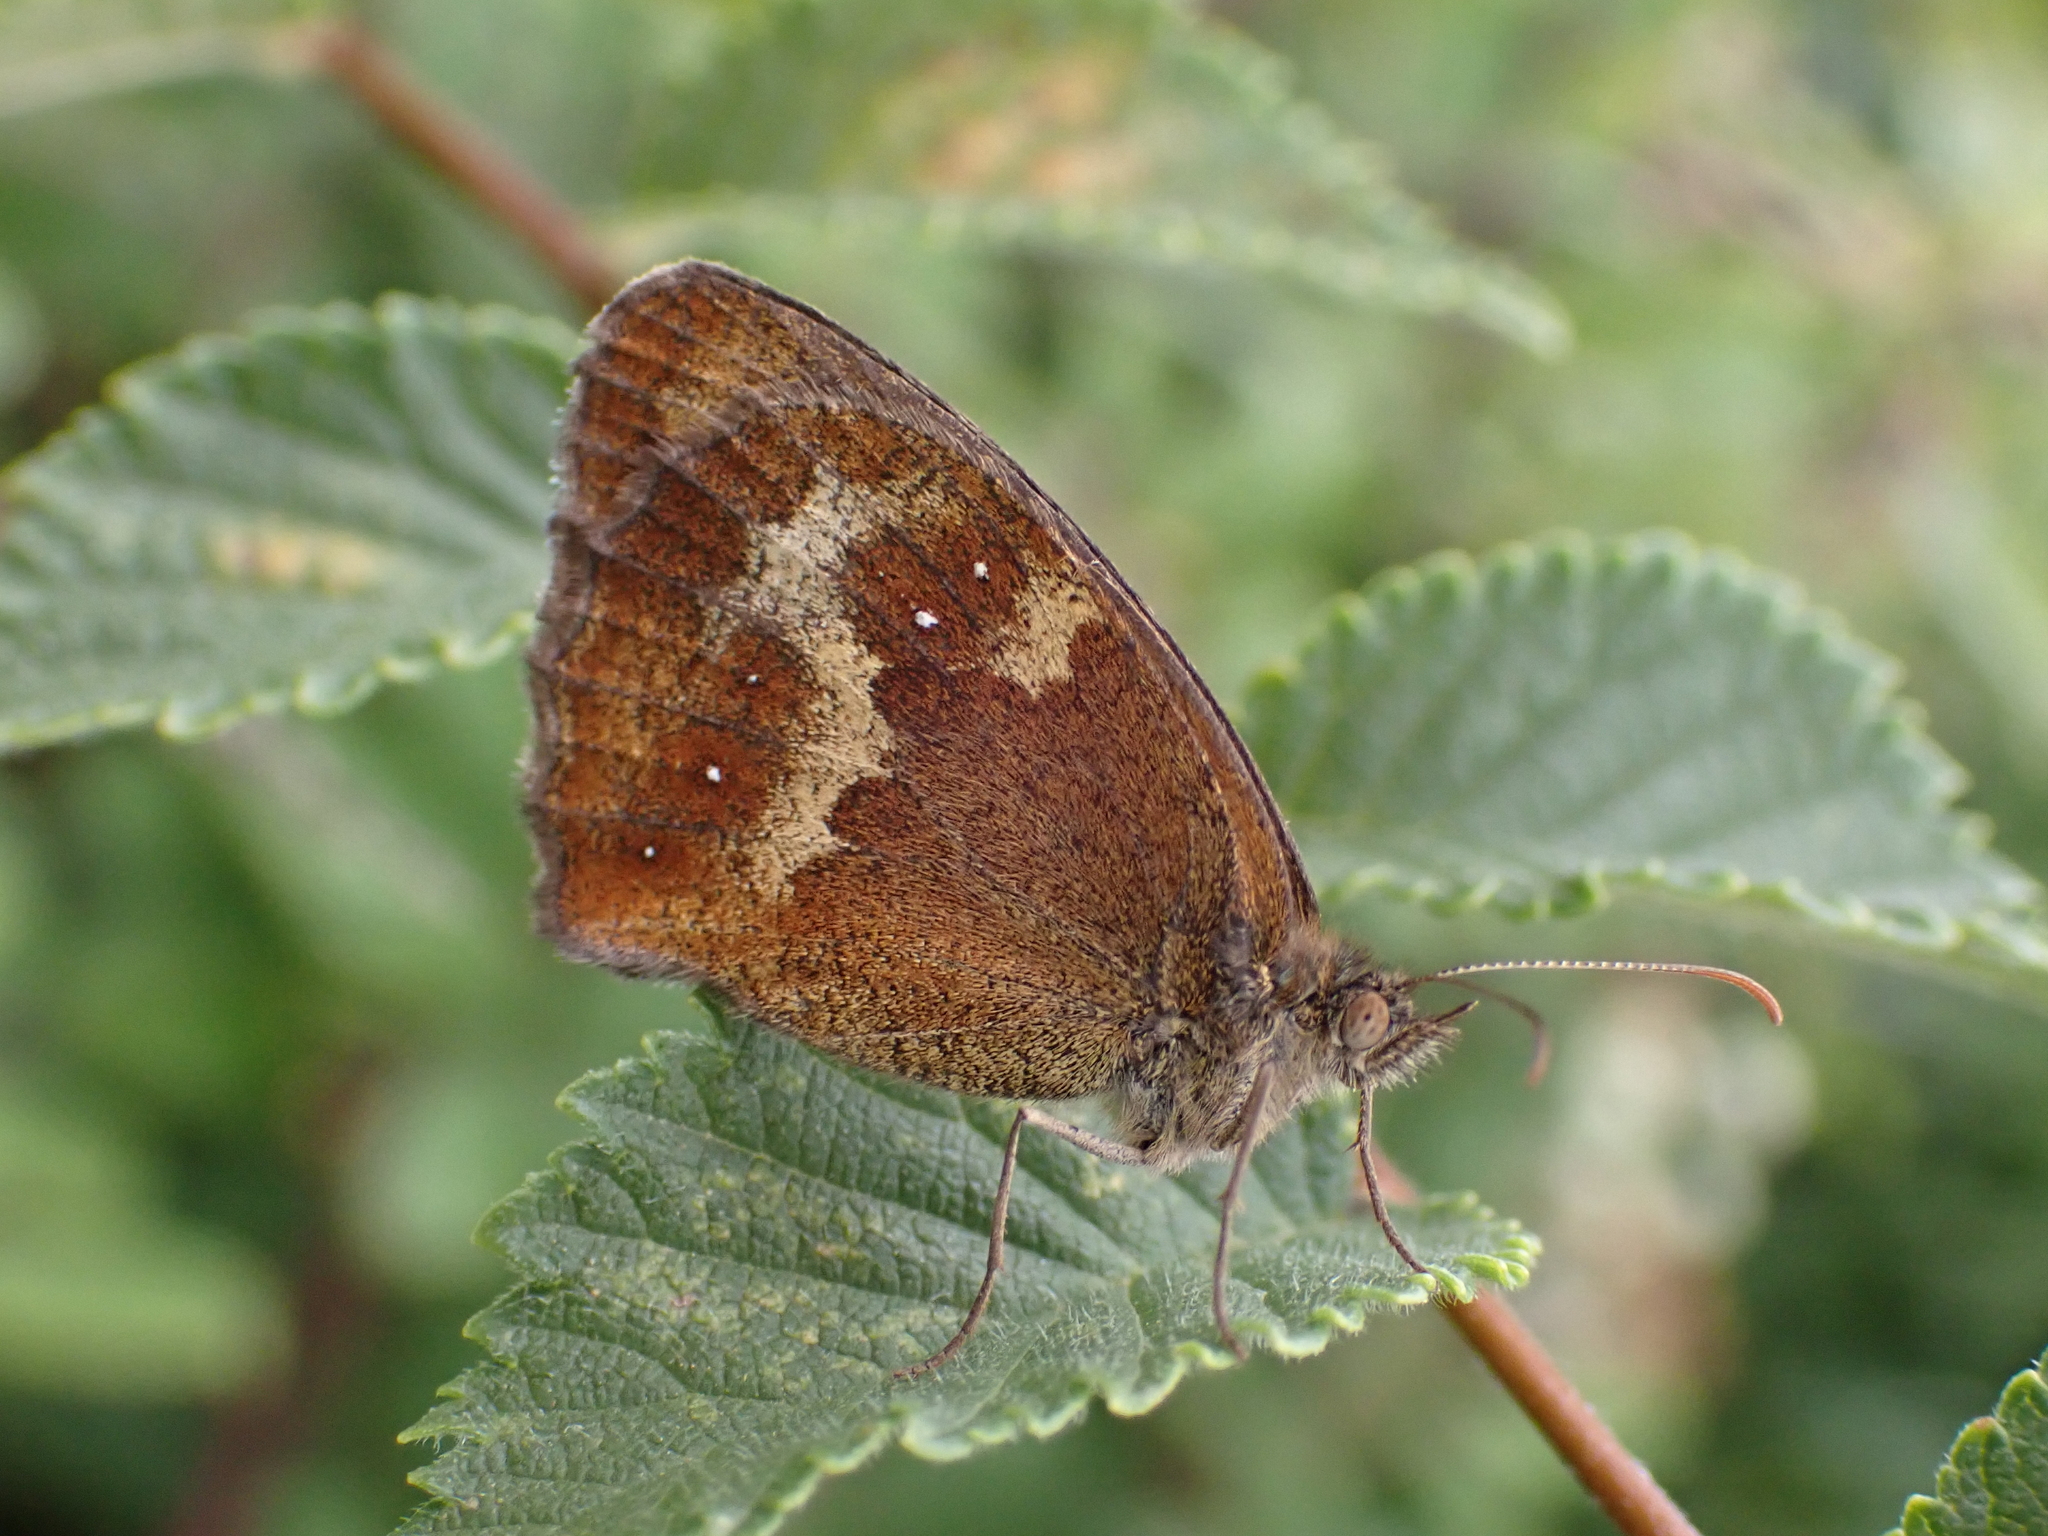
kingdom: Animalia
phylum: Arthropoda
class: Insecta
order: Lepidoptera
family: Nymphalidae
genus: Pyronia
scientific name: Pyronia tithonus
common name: Gatekeeper
